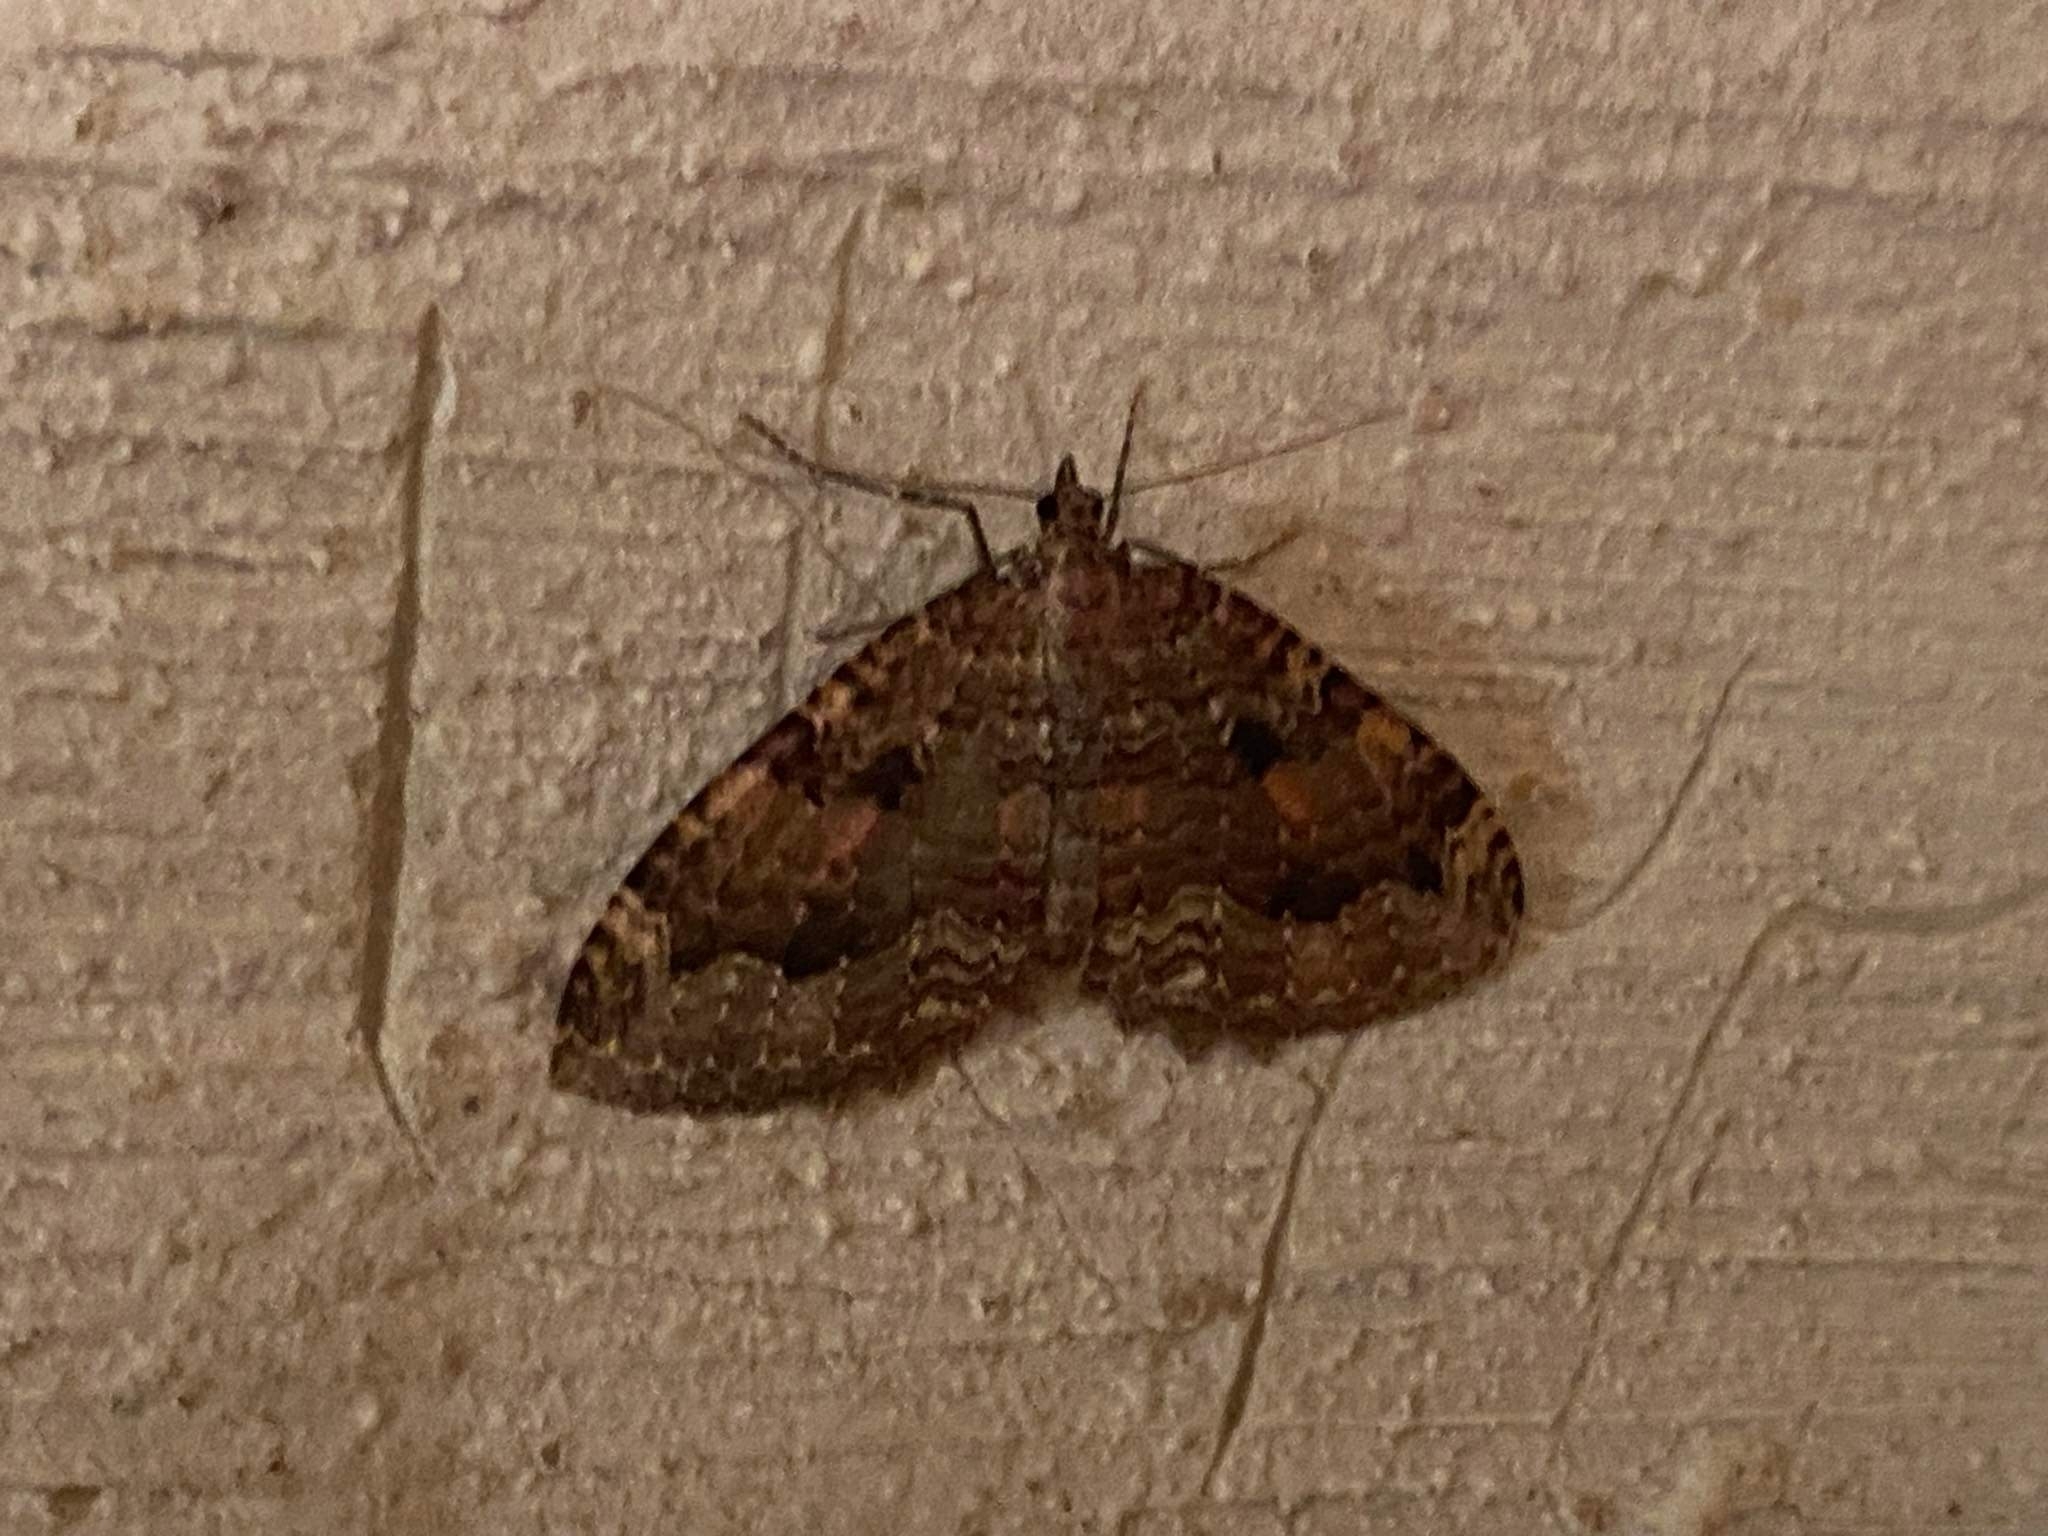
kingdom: Animalia
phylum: Arthropoda
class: Insecta
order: Lepidoptera
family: Geometridae
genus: Triphosa
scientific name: Triphosa dubitata
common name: Tissue
